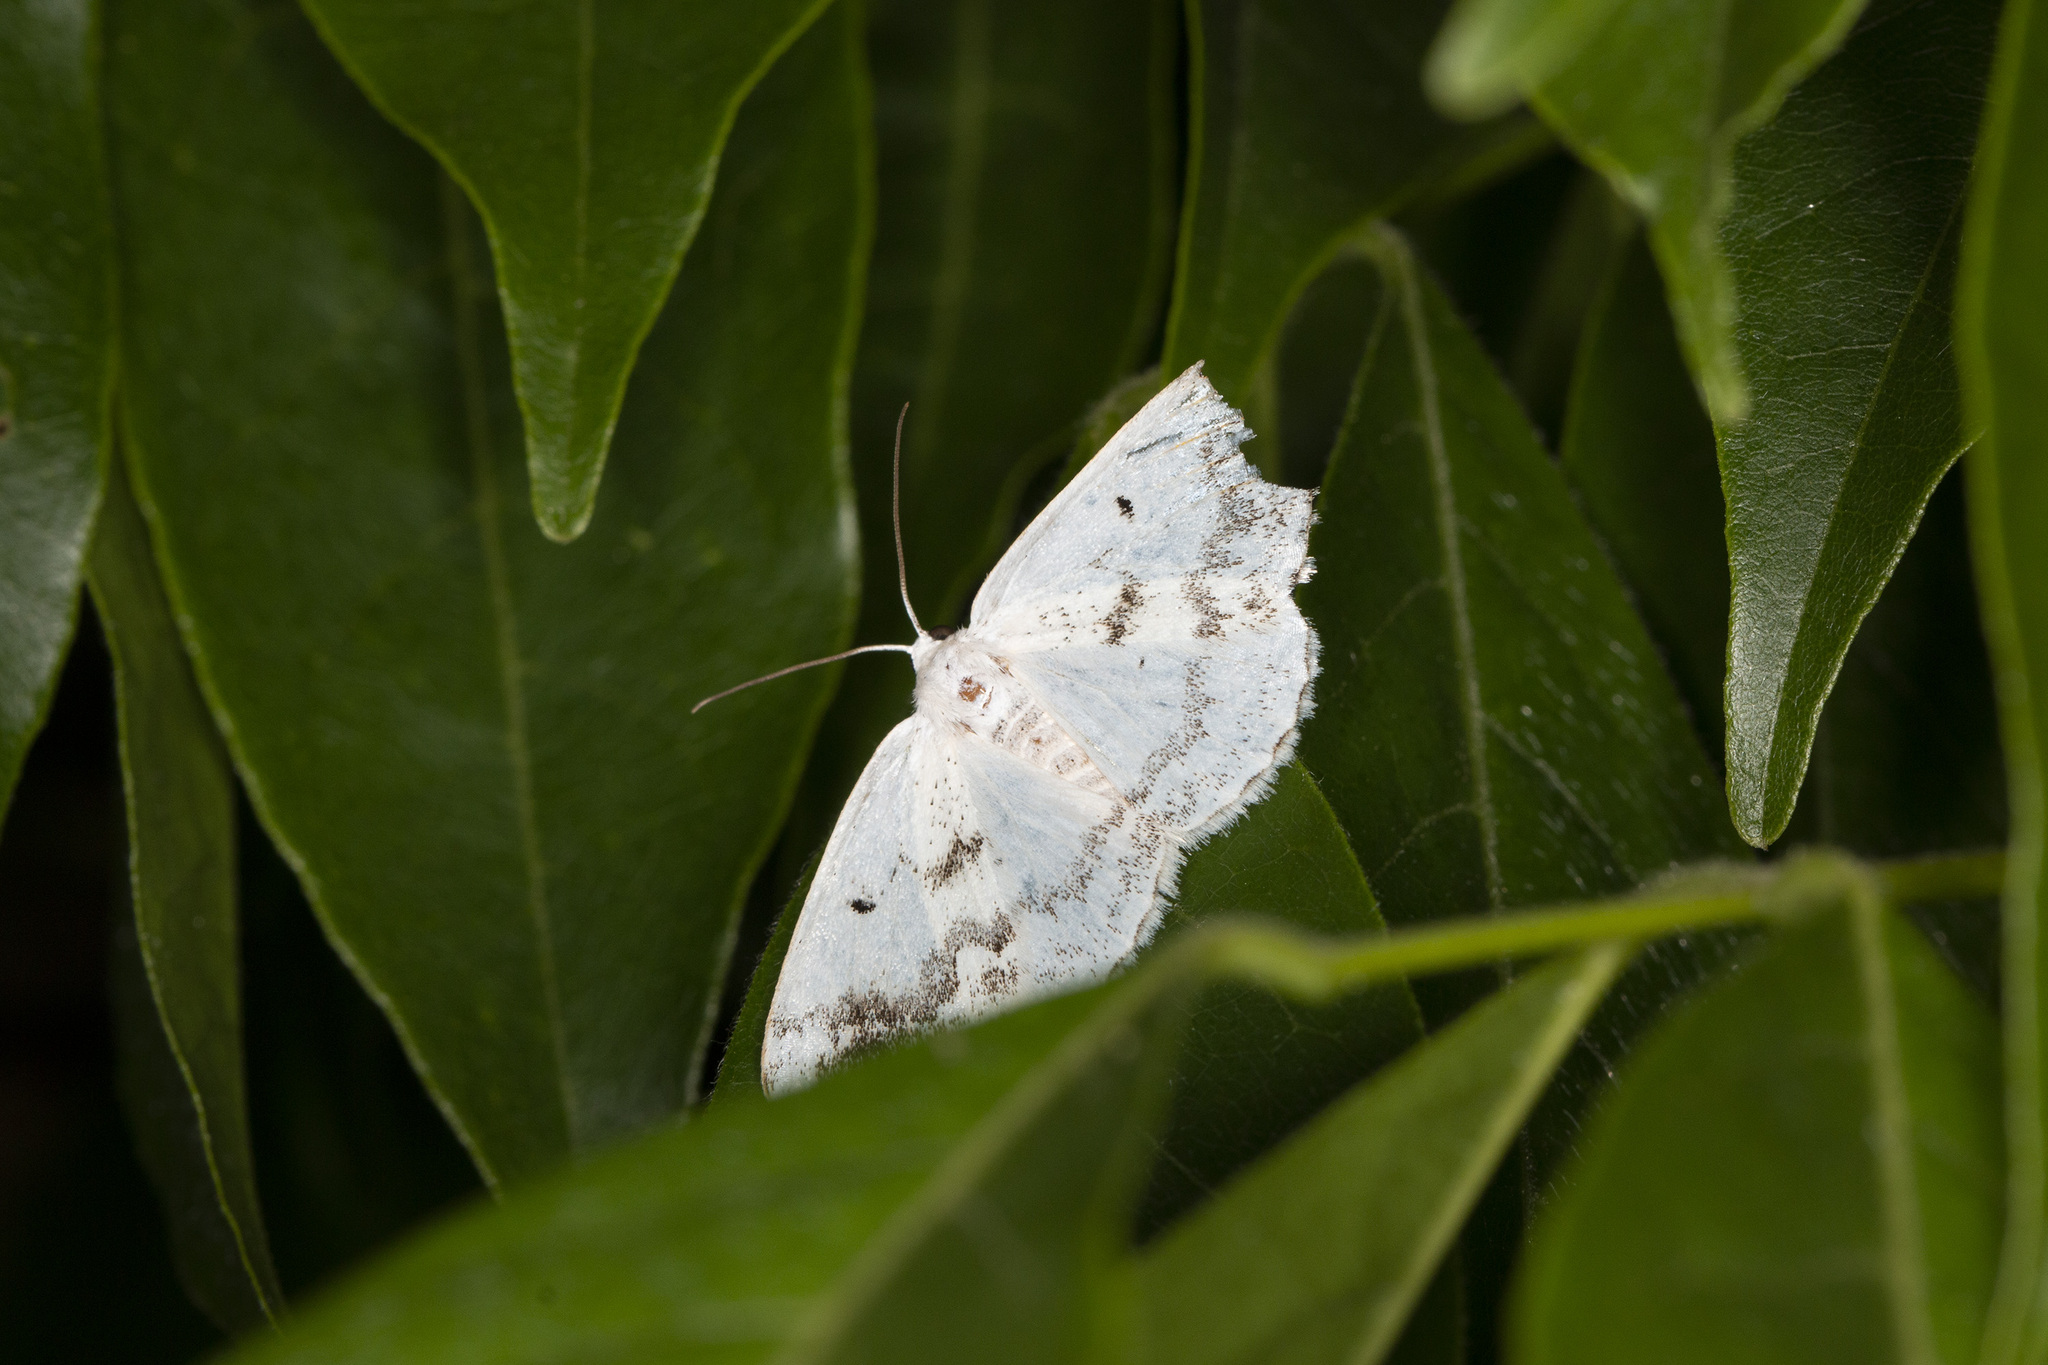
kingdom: Animalia
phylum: Arthropoda
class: Insecta
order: Lepidoptera
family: Geometridae
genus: Lomographa
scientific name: Lomographa temerata
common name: Clouded silver
